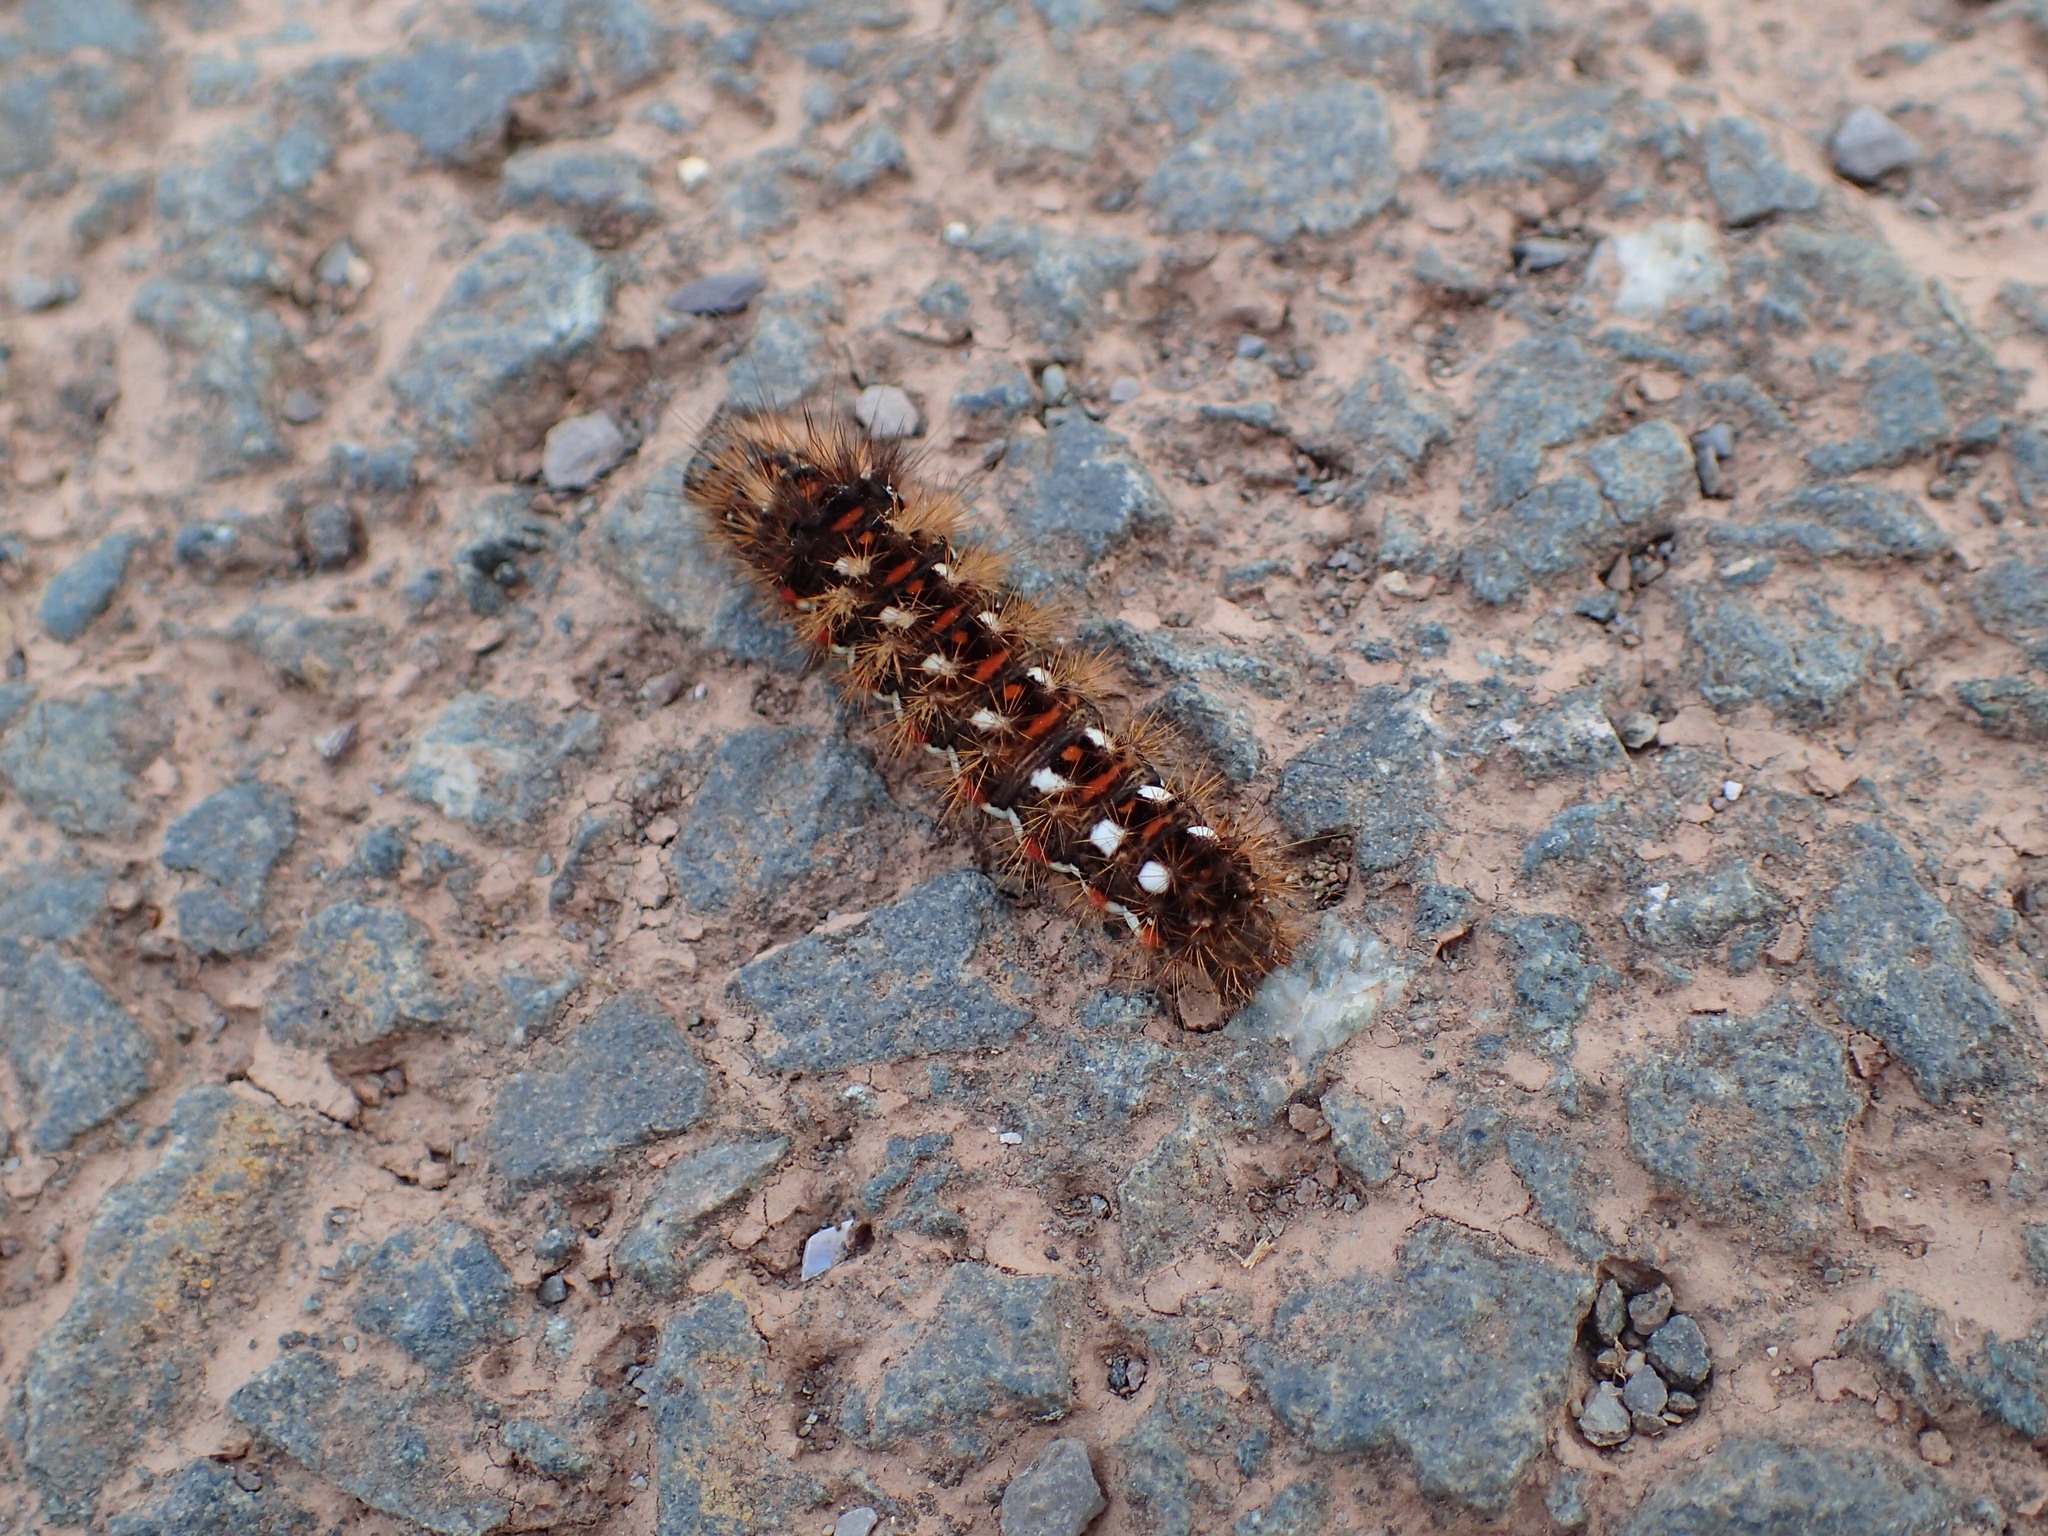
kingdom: Animalia
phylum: Arthropoda
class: Insecta
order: Lepidoptera
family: Noctuidae
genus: Acronicta
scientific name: Acronicta rumicis
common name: Knot grass
